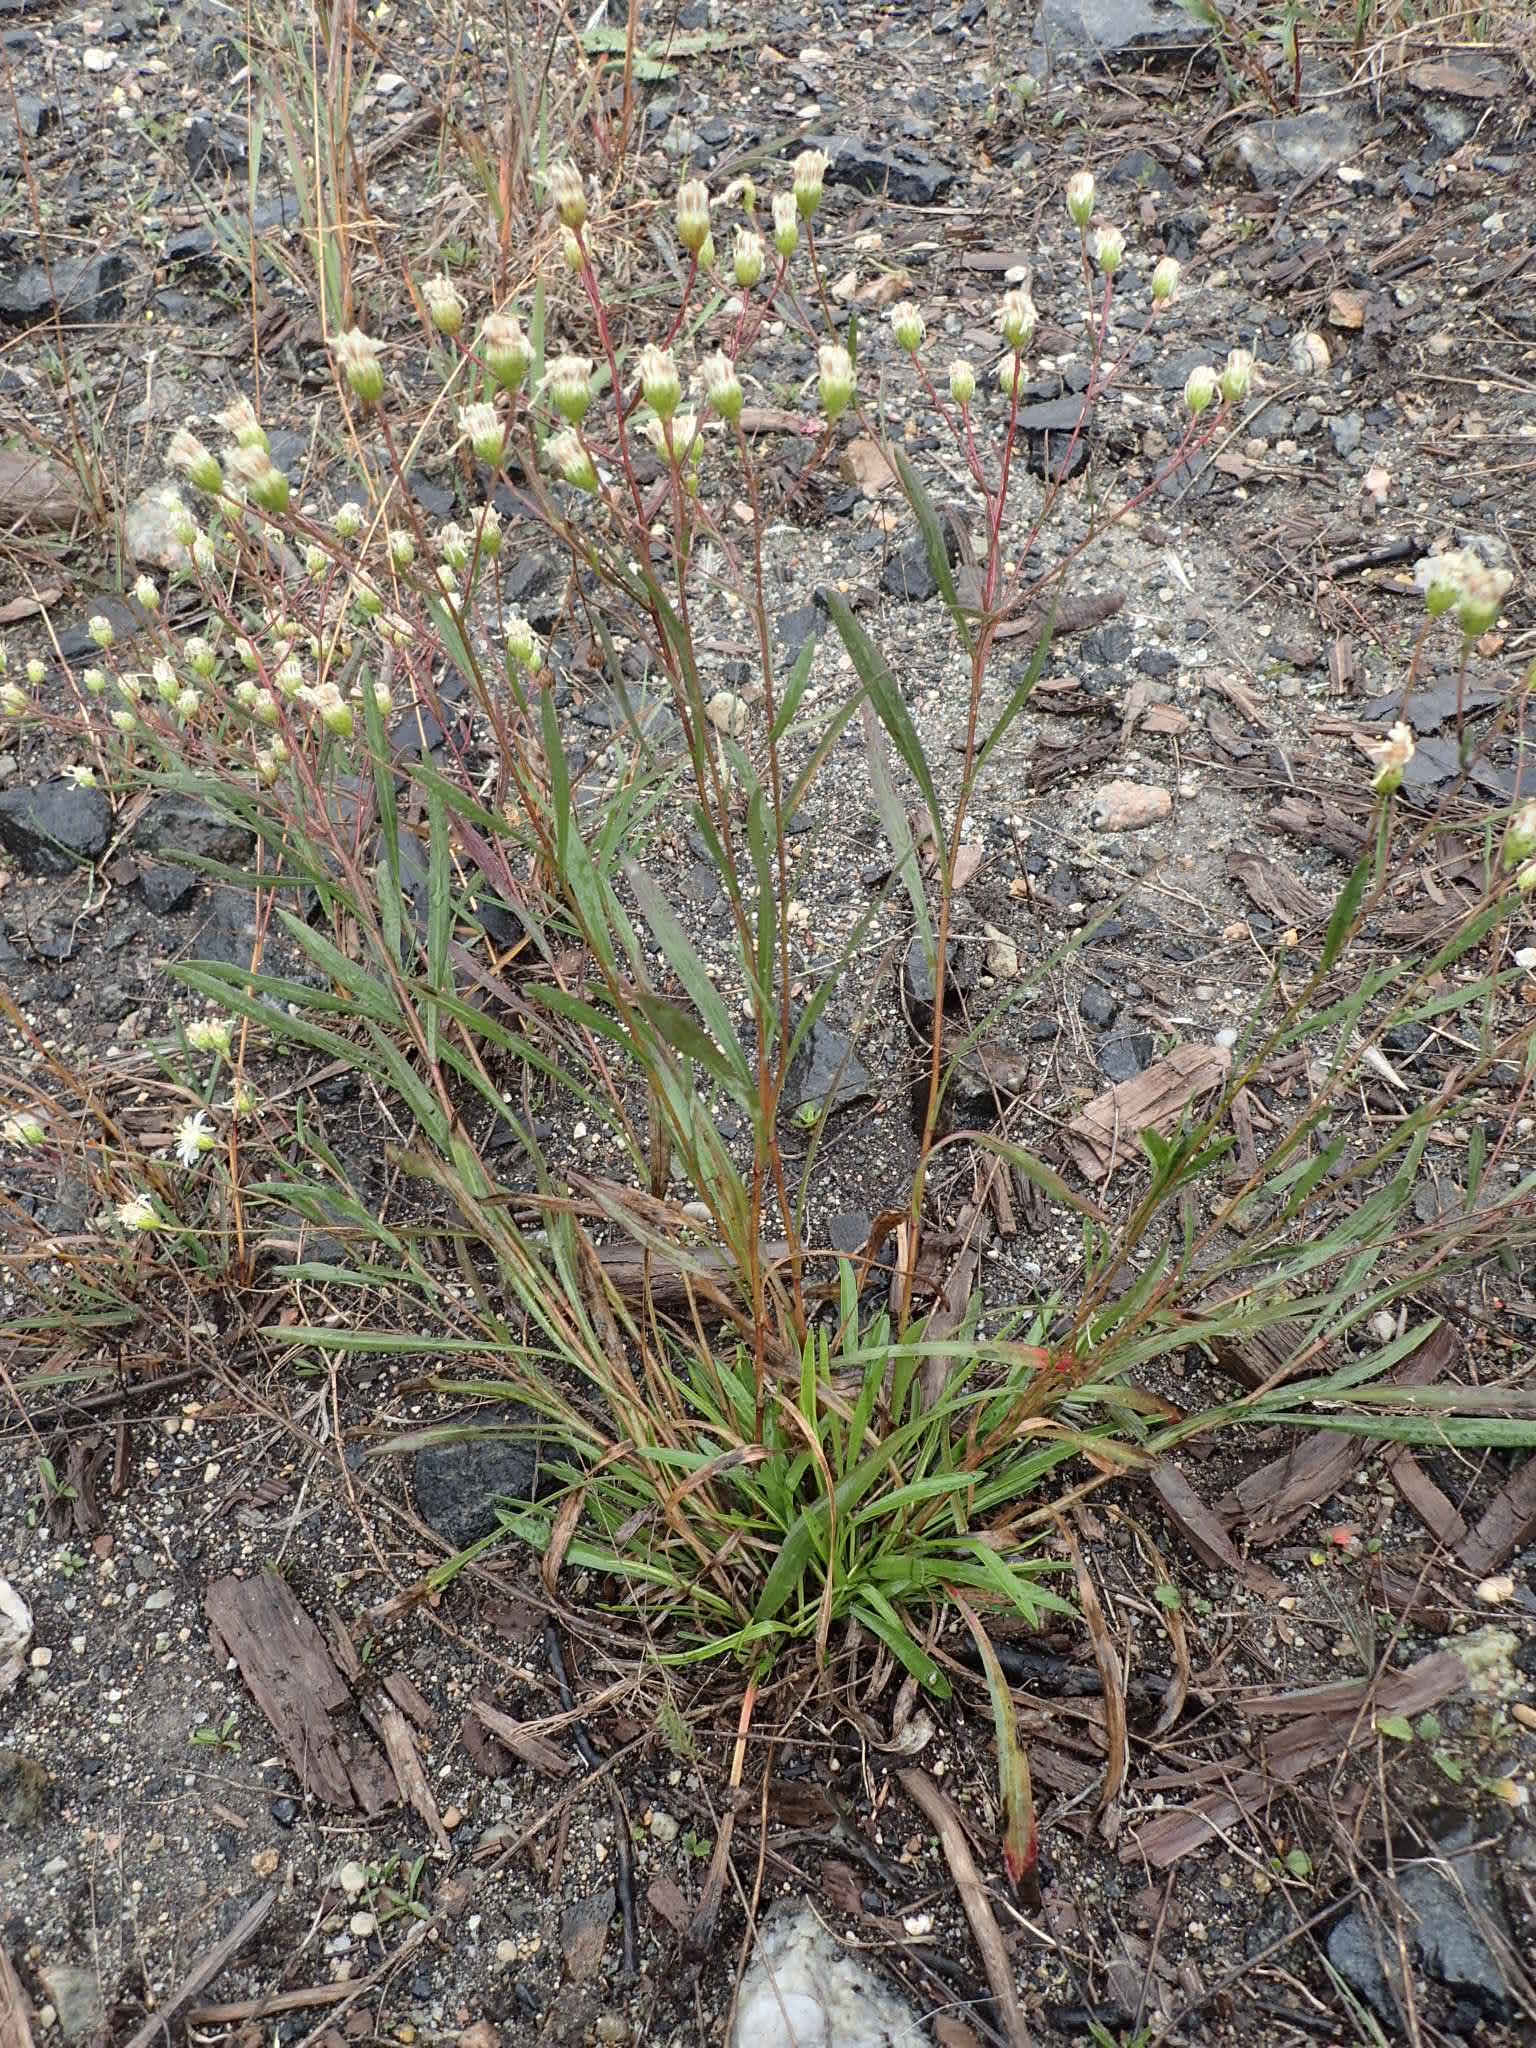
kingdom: Plantae
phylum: Tracheophyta
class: Magnoliopsida
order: Asterales
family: Asteraceae
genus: Solidago
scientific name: Solidago ptarmicoides
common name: White flat-top goldenrod
